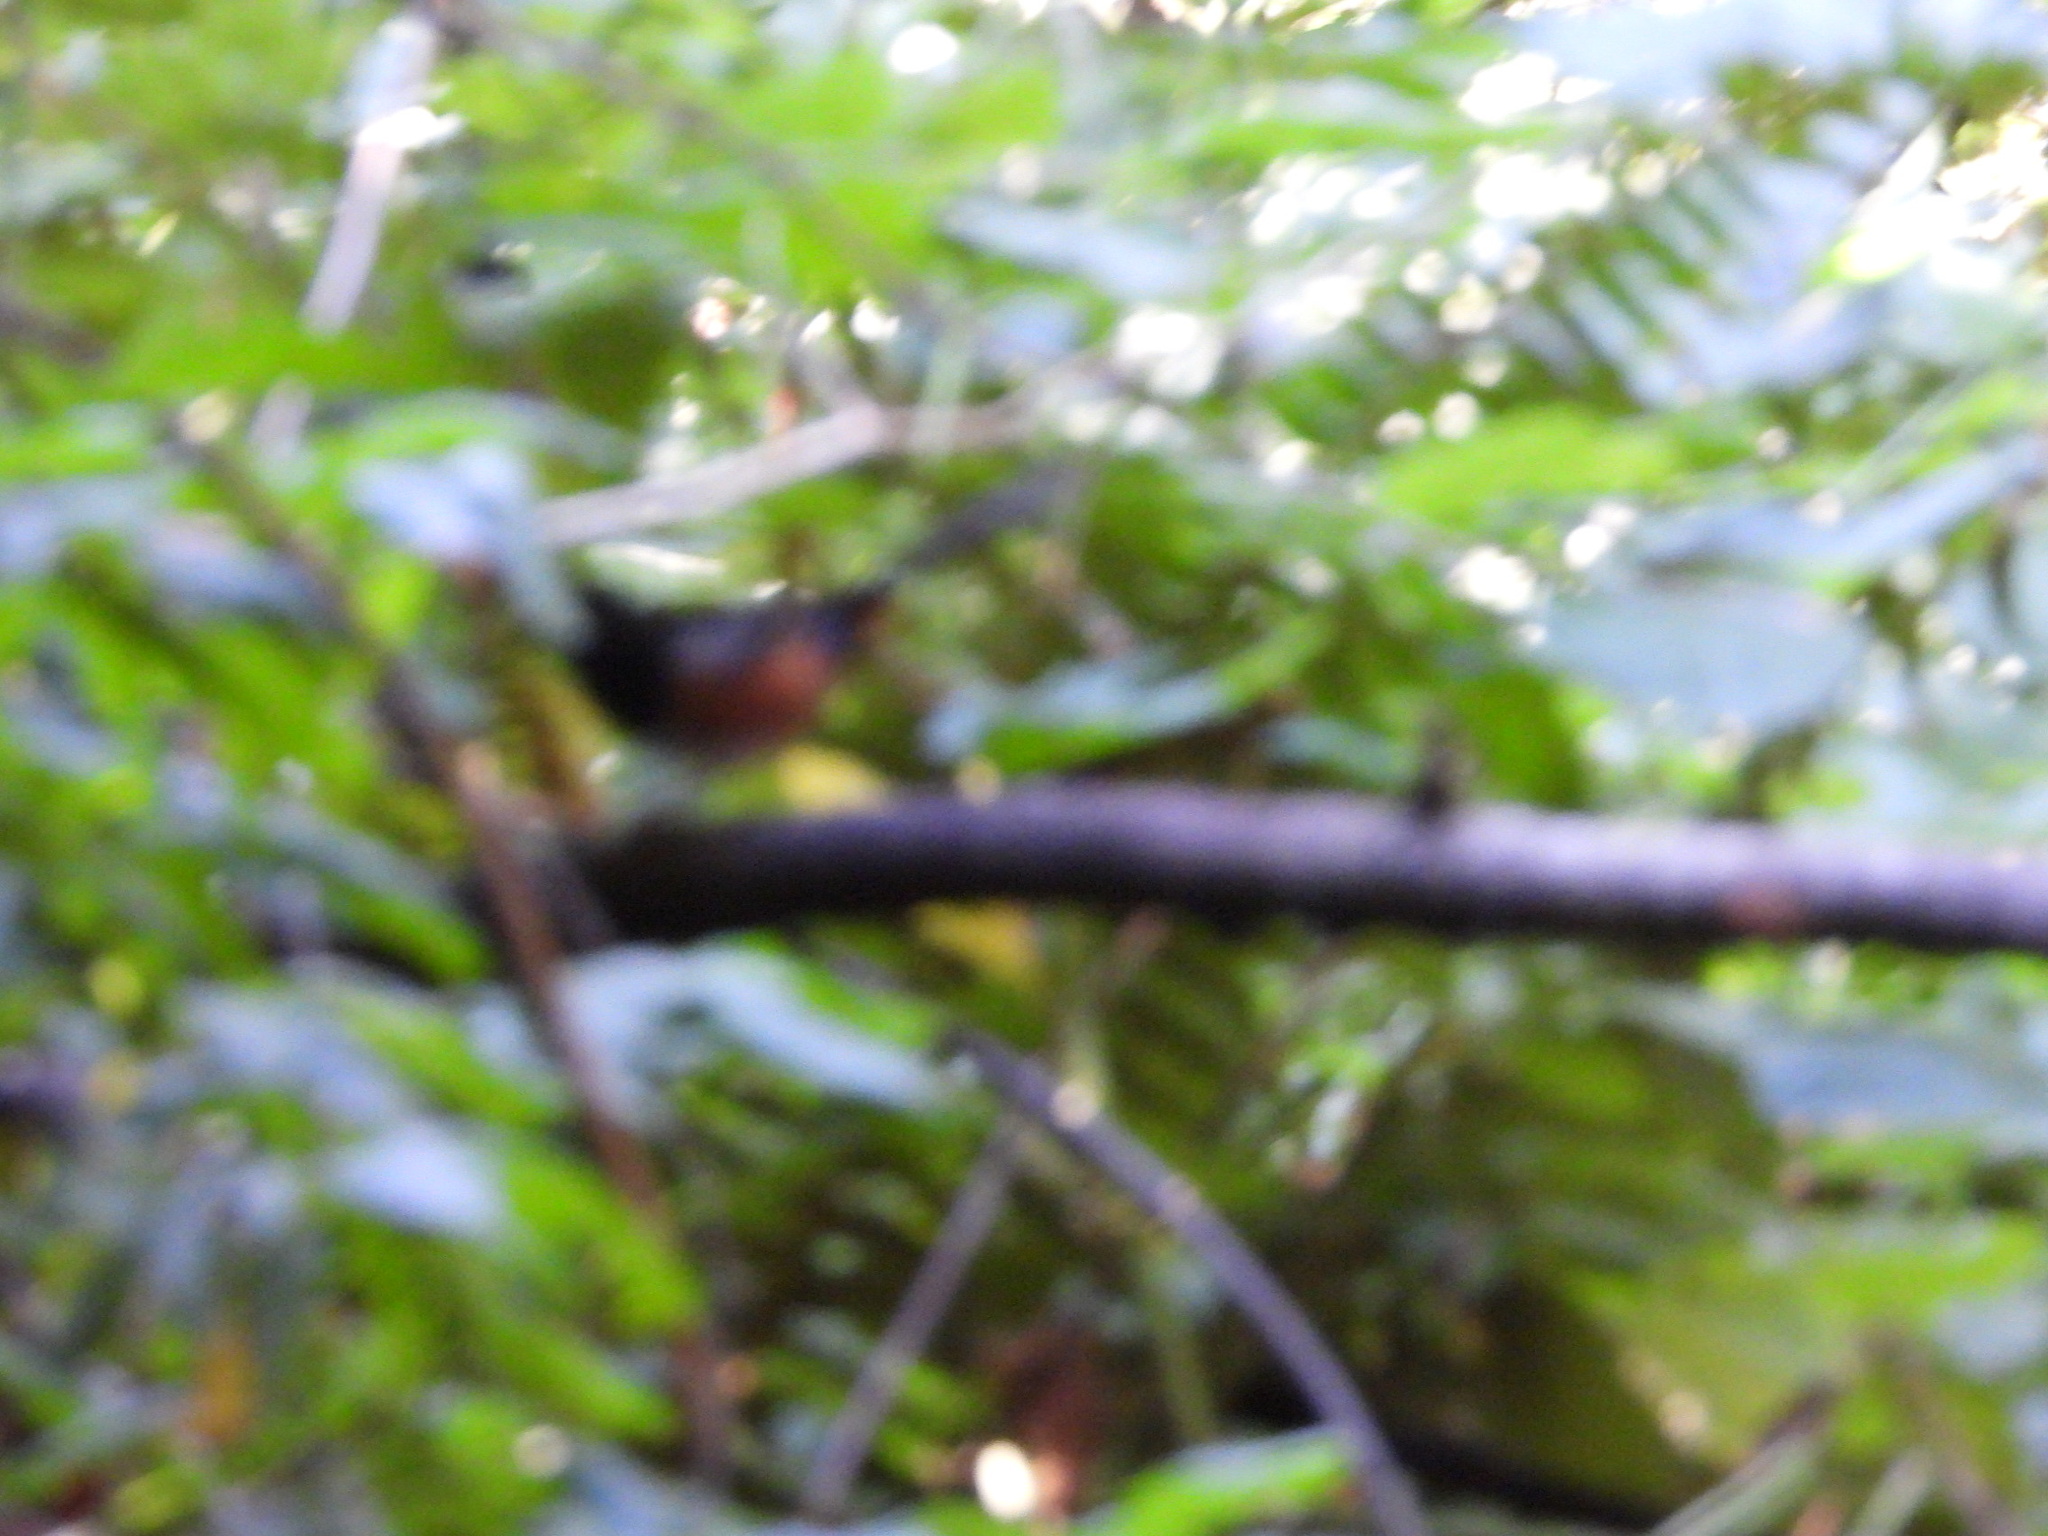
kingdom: Animalia
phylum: Chordata
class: Aves
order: Passeriformes
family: Passerellidae
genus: Pipilo
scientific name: Pipilo maculatus
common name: Spotted towhee
